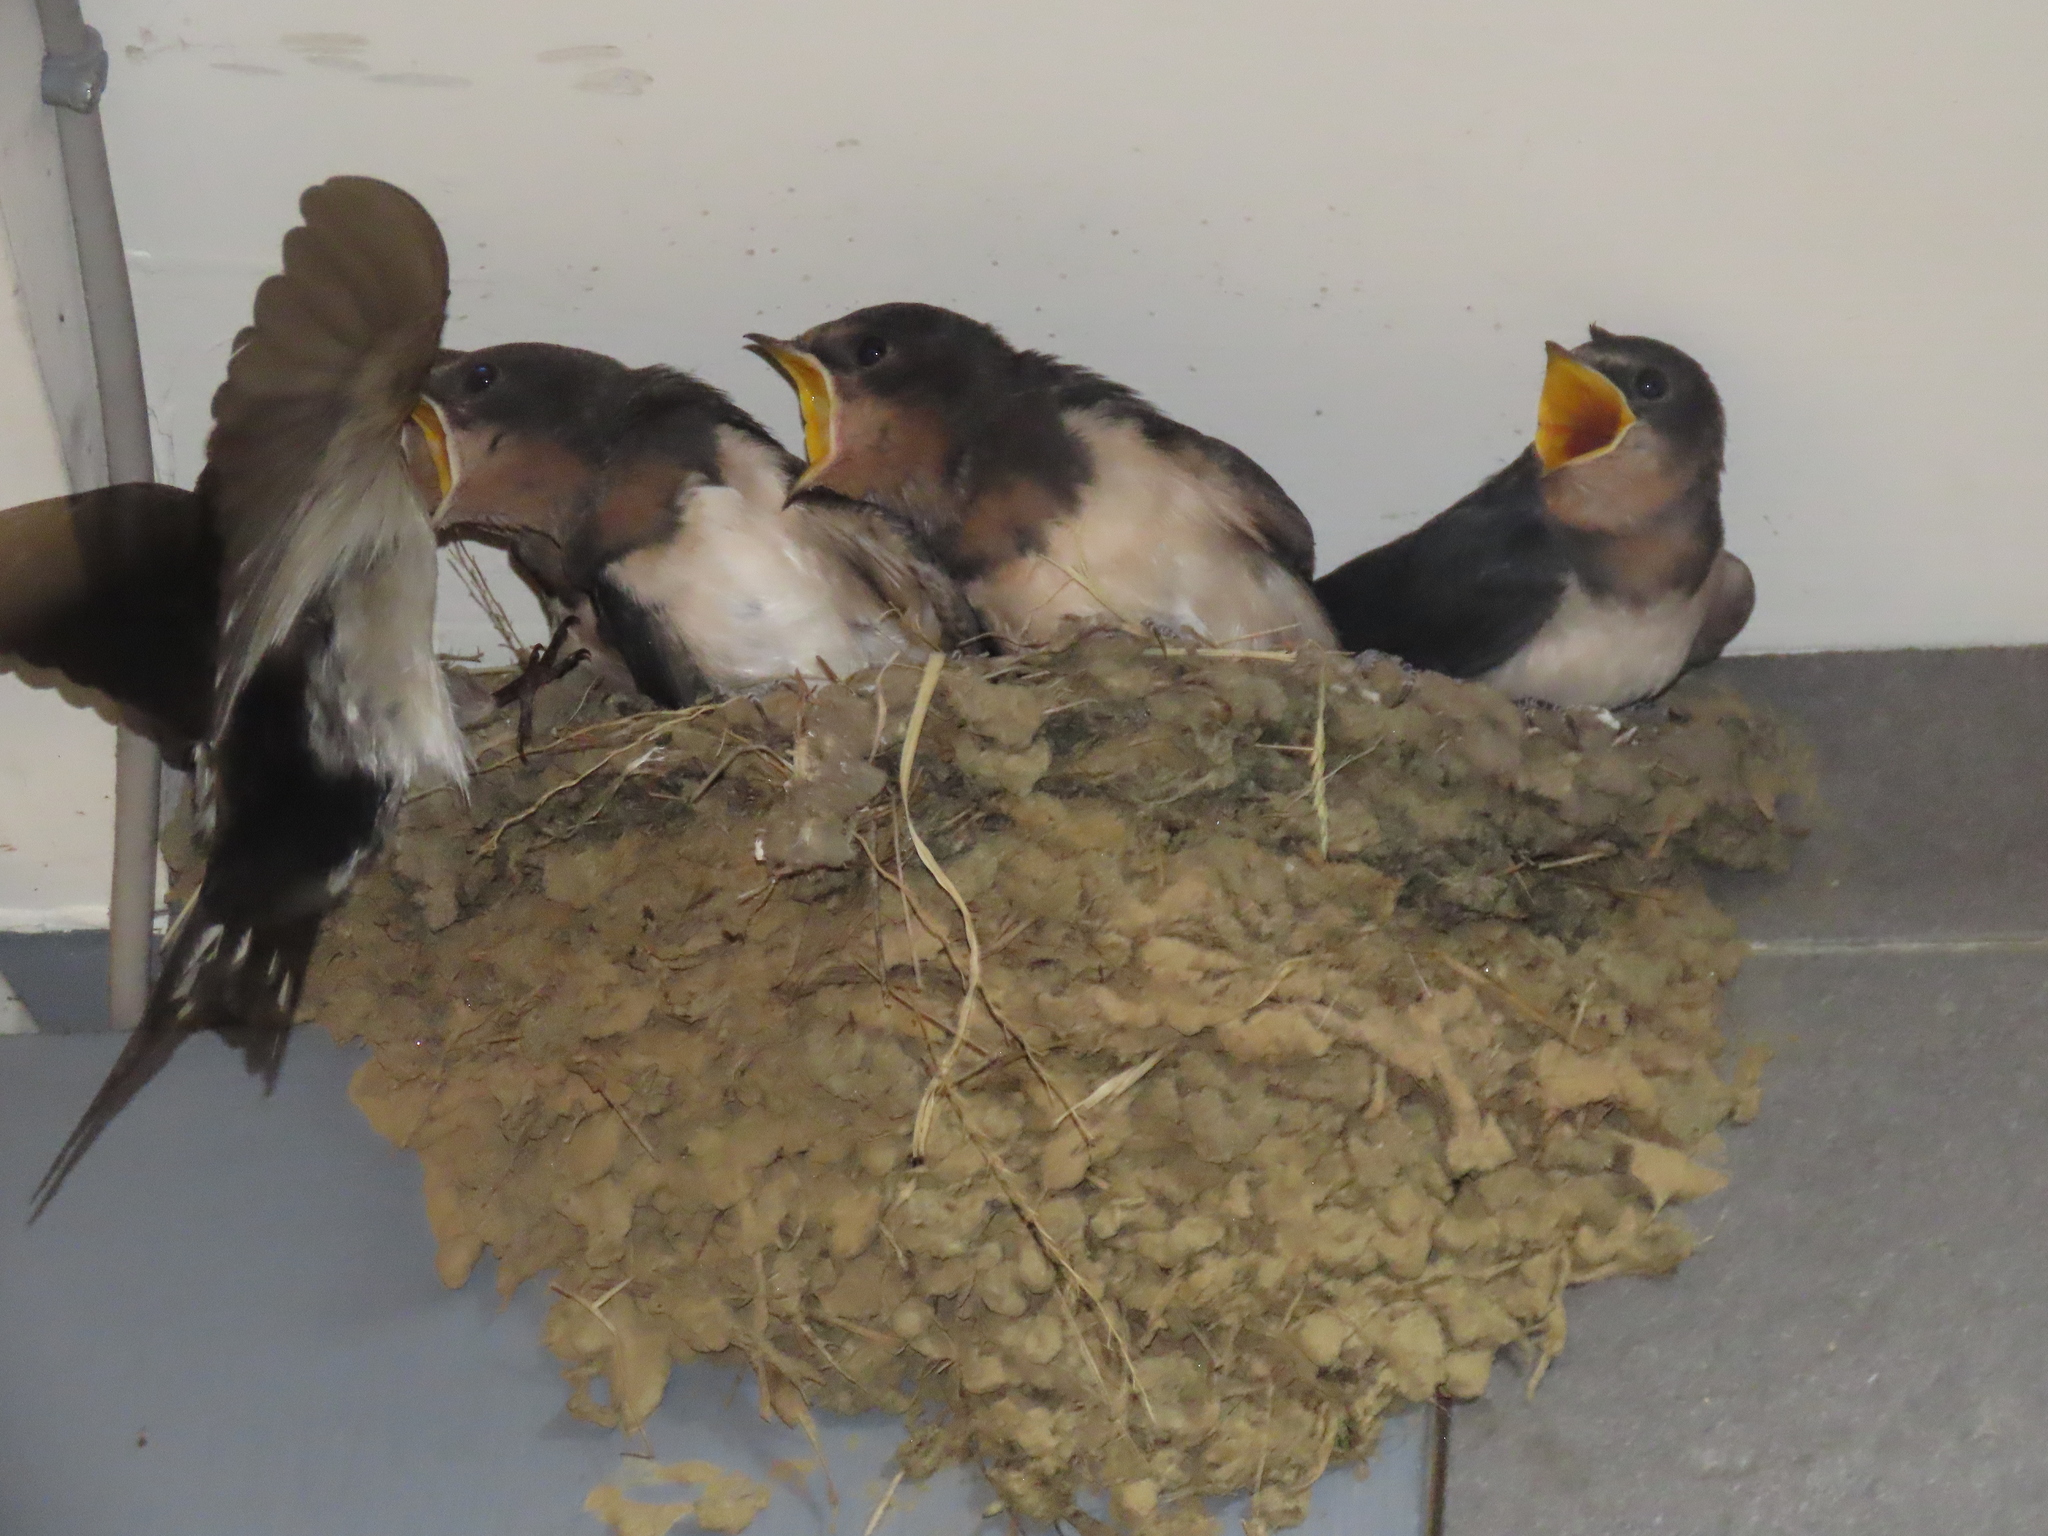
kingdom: Animalia
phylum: Chordata
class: Aves
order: Passeriformes
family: Hirundinidae
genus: Hirundo
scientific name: Hirundo rustica
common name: Barn swallow
